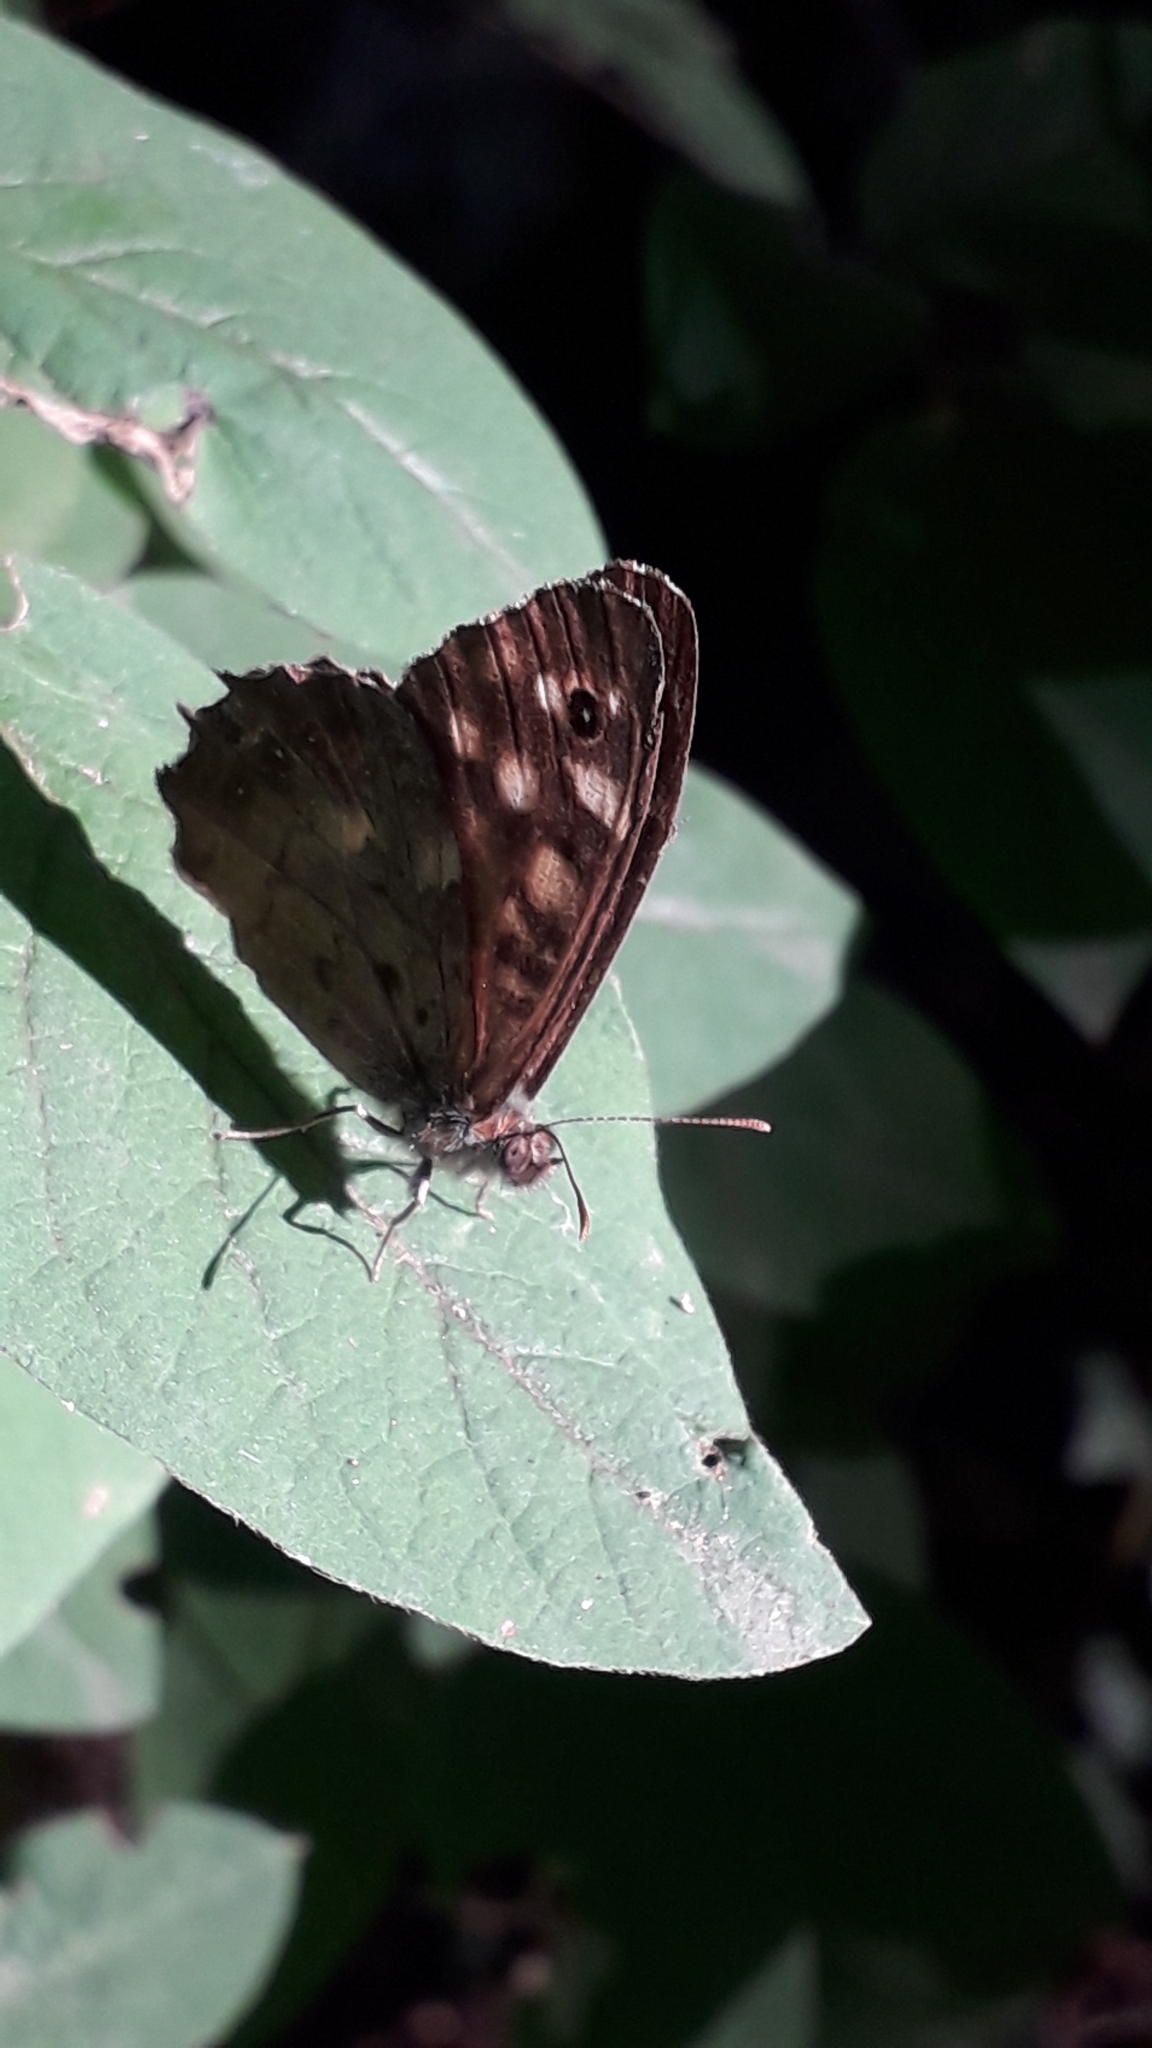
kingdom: Animalia
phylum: Arthropoda
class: Insecta
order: Lepidoptera
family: Nymphalidae
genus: Pararge
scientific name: Pararge aegeria
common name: Speckled wood
